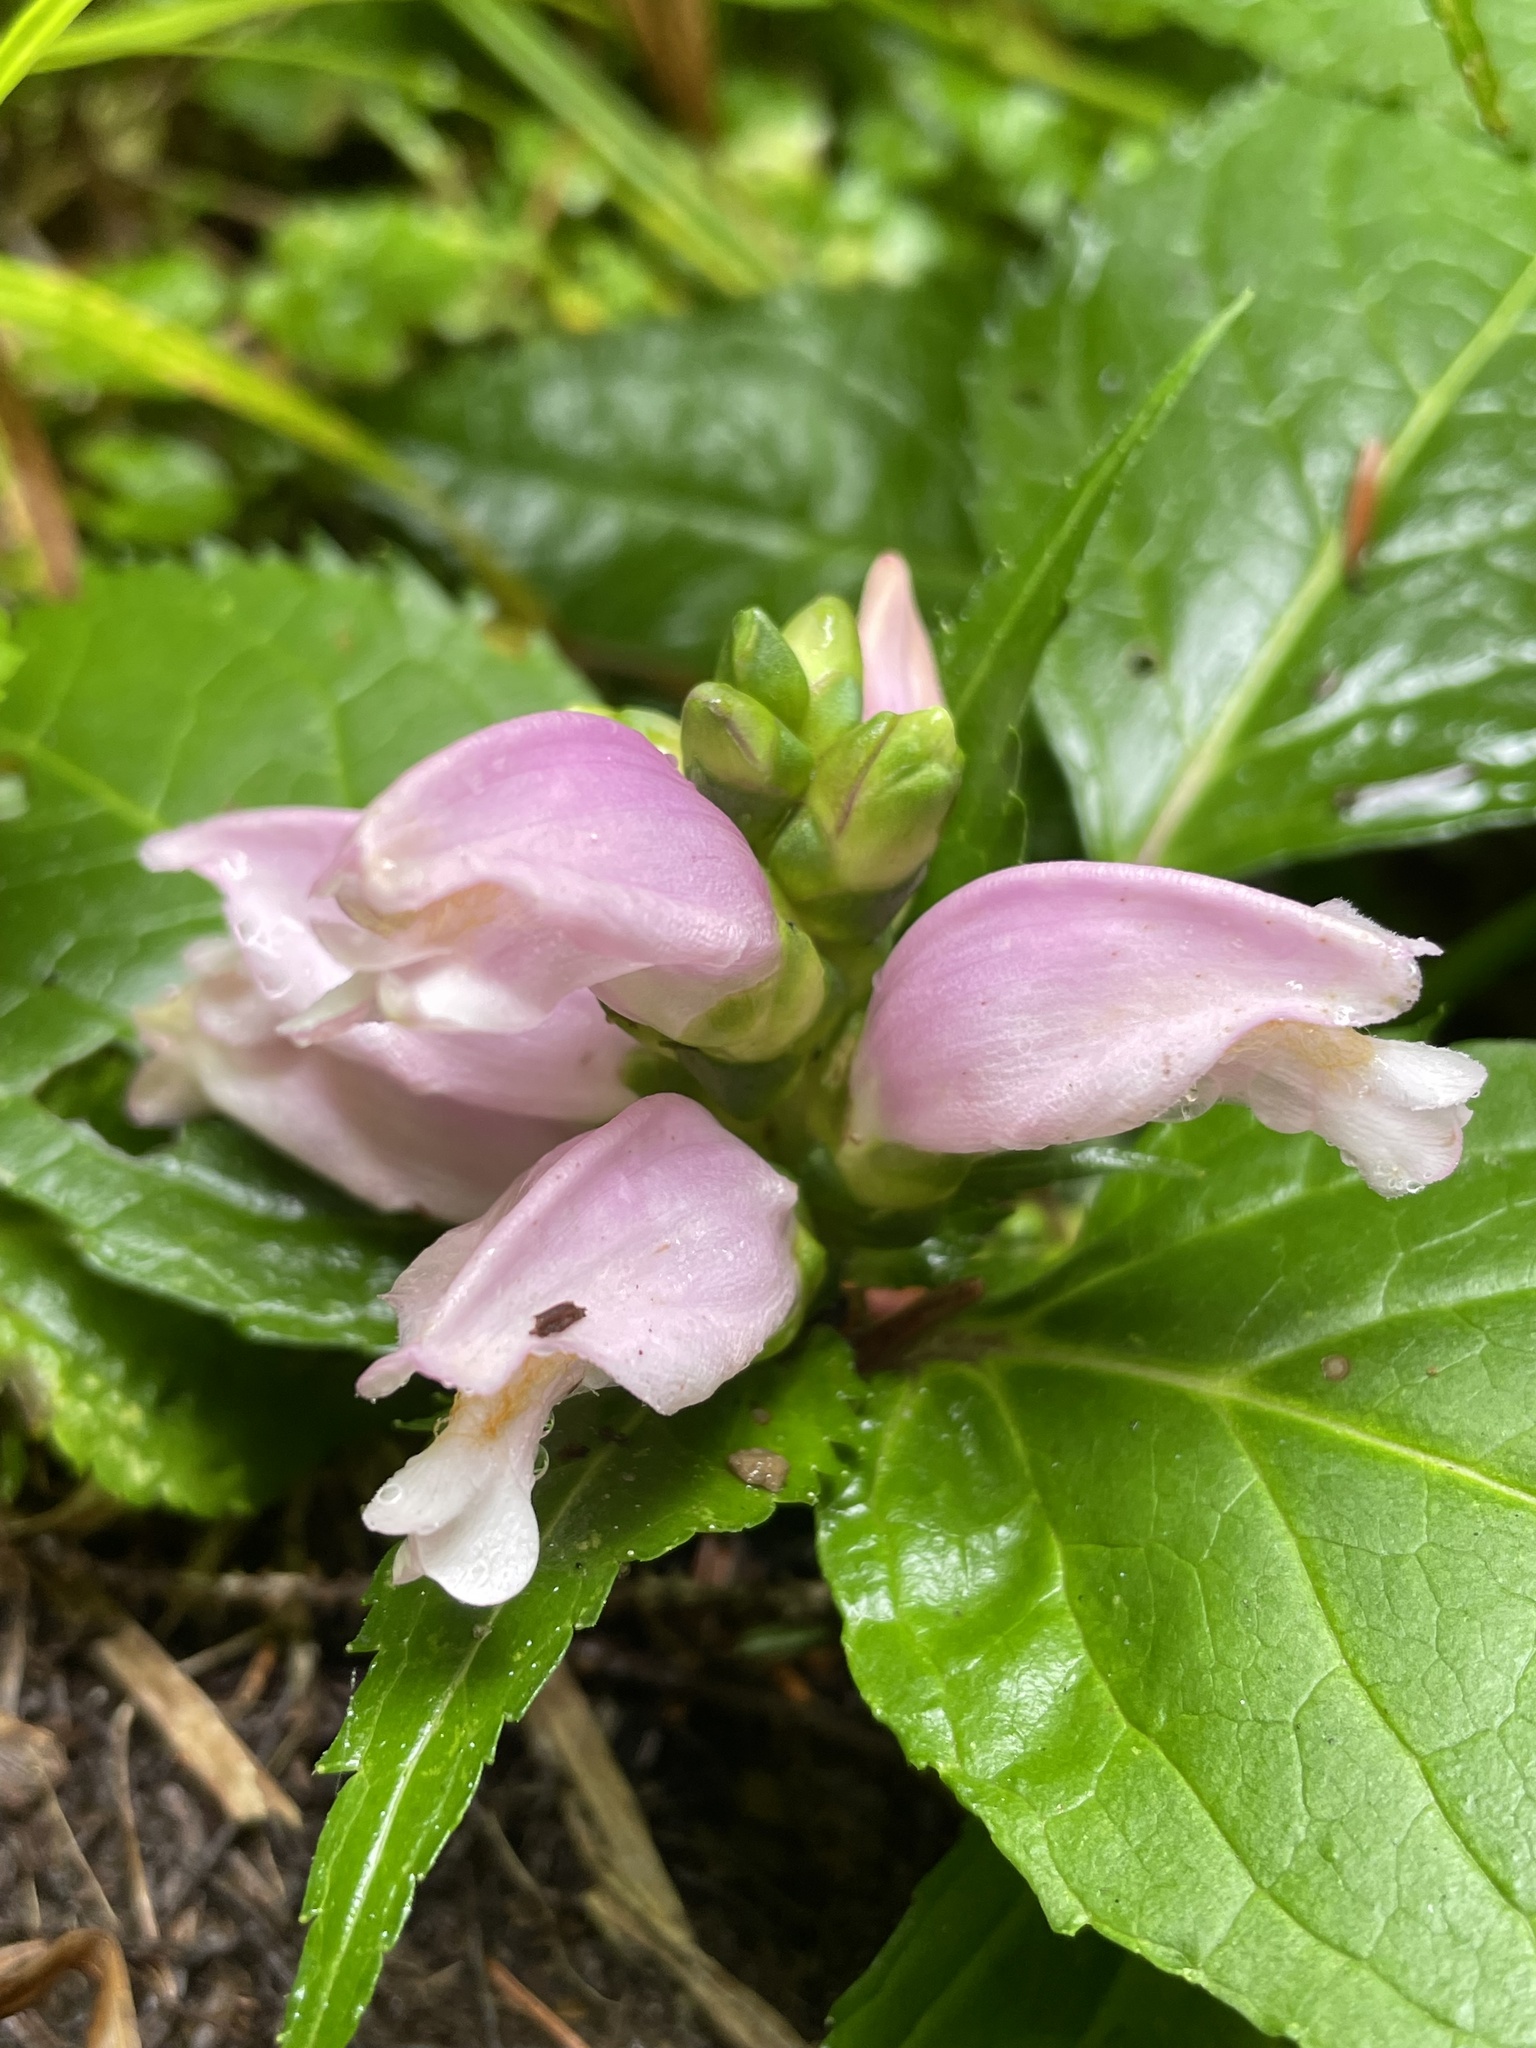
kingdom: Plantae
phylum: Tracheophyta
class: Magnoliopsida
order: Lamiales
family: Plantaginaceae
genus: Chelone
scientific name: Chelone lyonii
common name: Pink turtlehead
